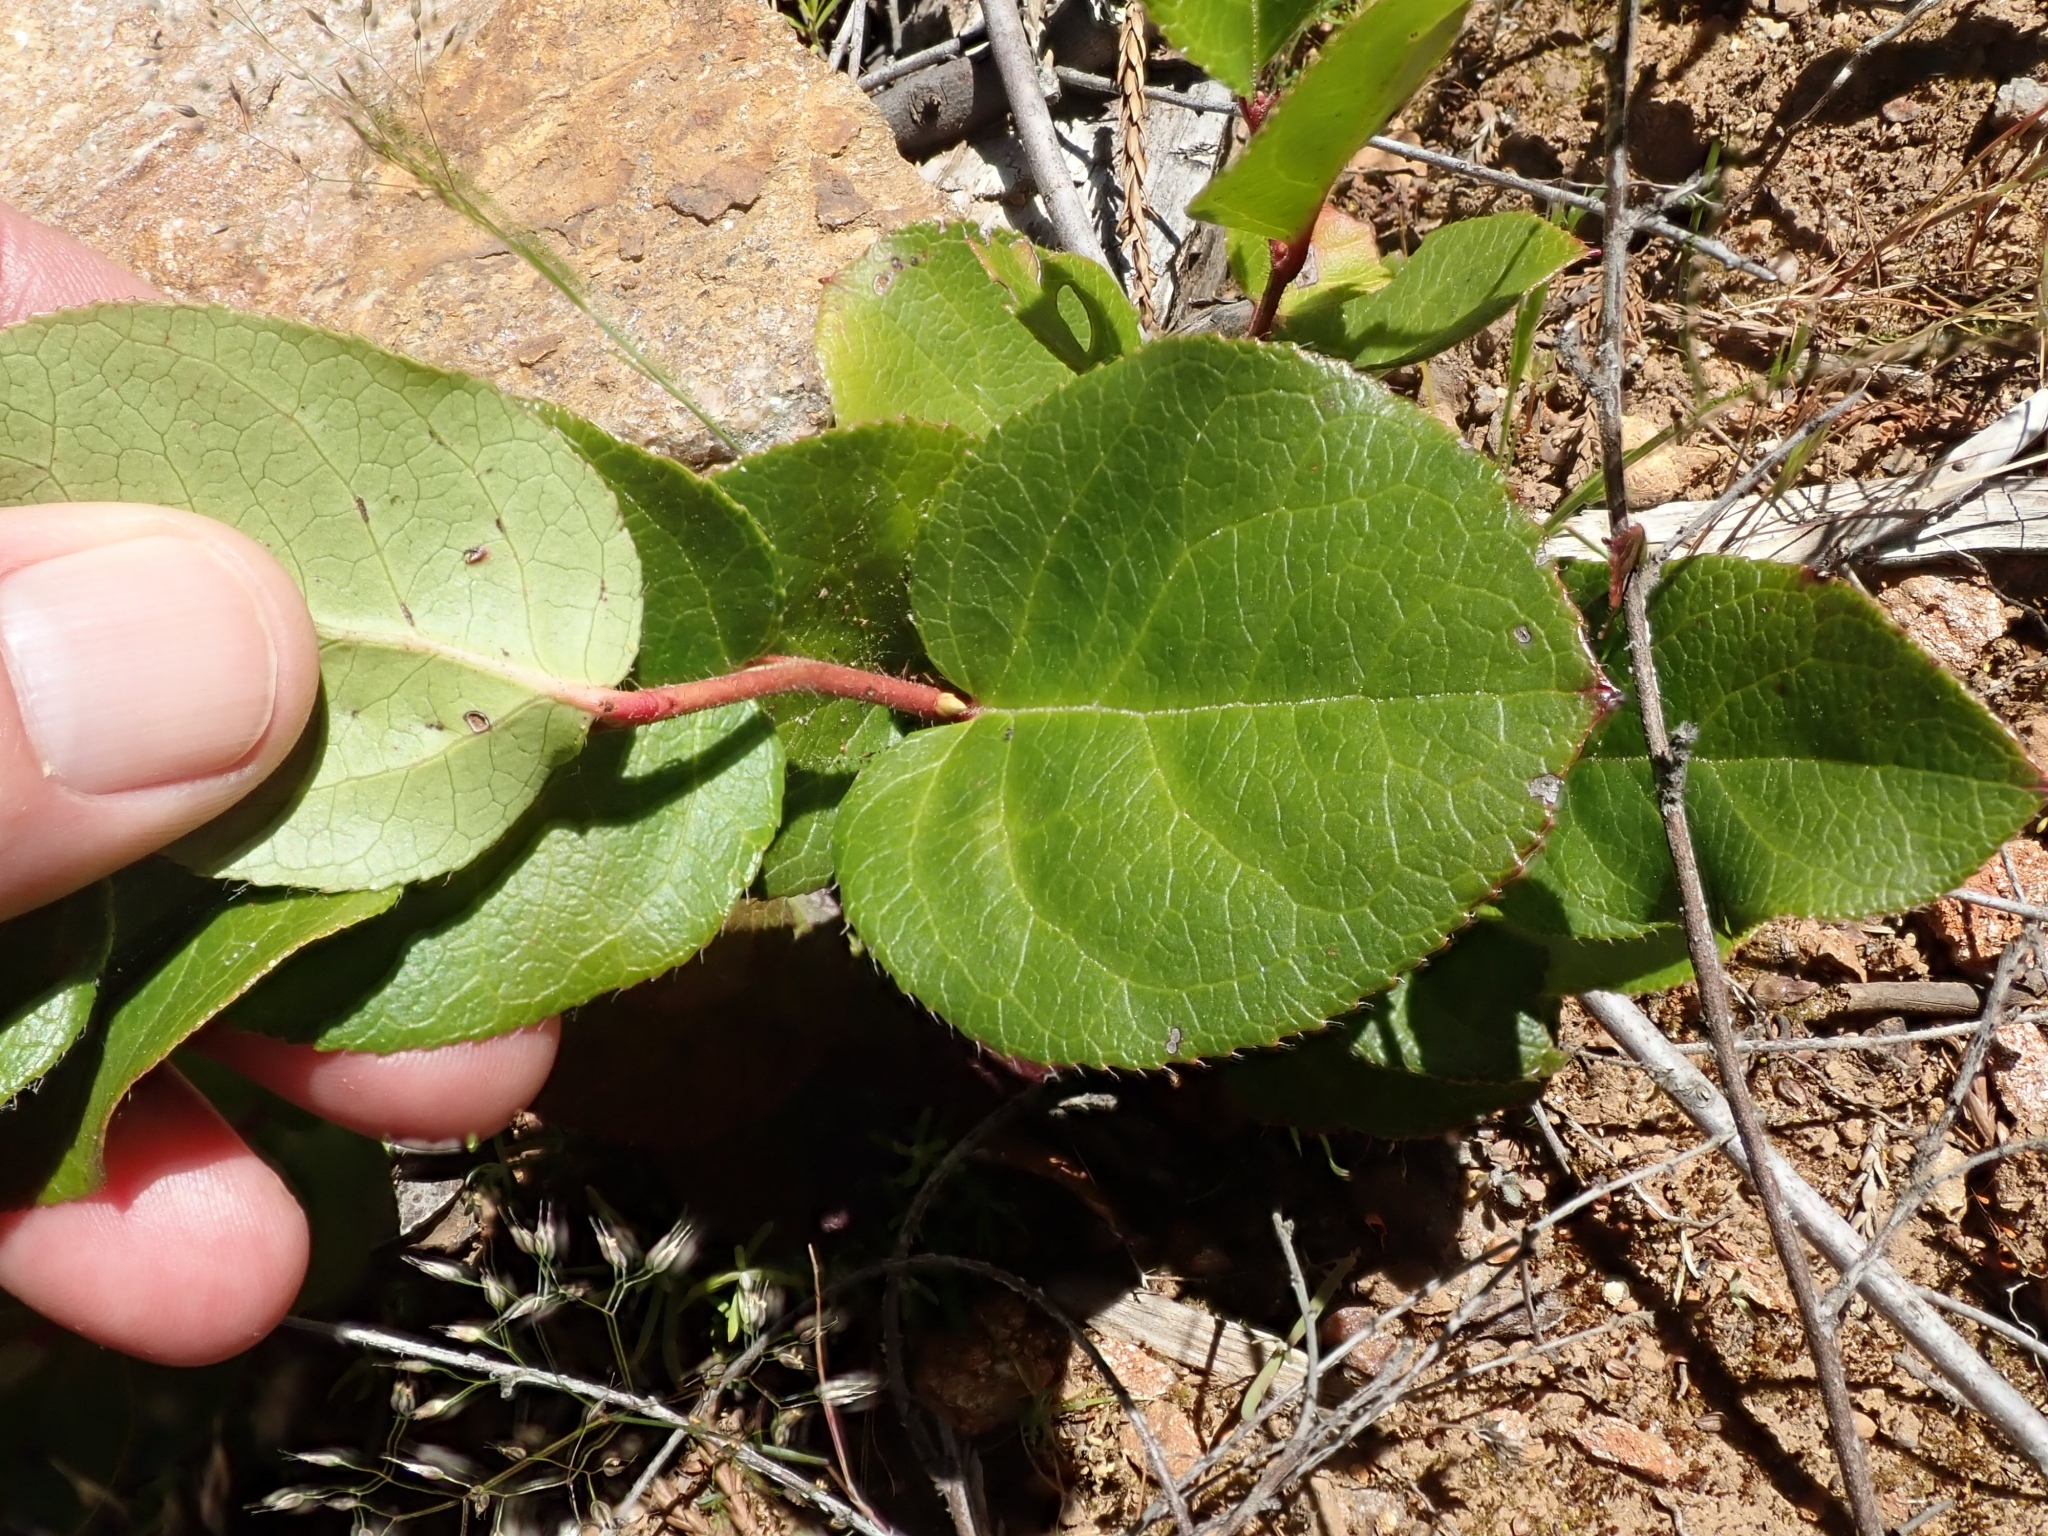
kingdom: Plantae
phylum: Tracheophyta
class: Magnoliopsida
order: Ericales
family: Ericaceae
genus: Gaultheria
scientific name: Gaultheria shallon
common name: Shallon
